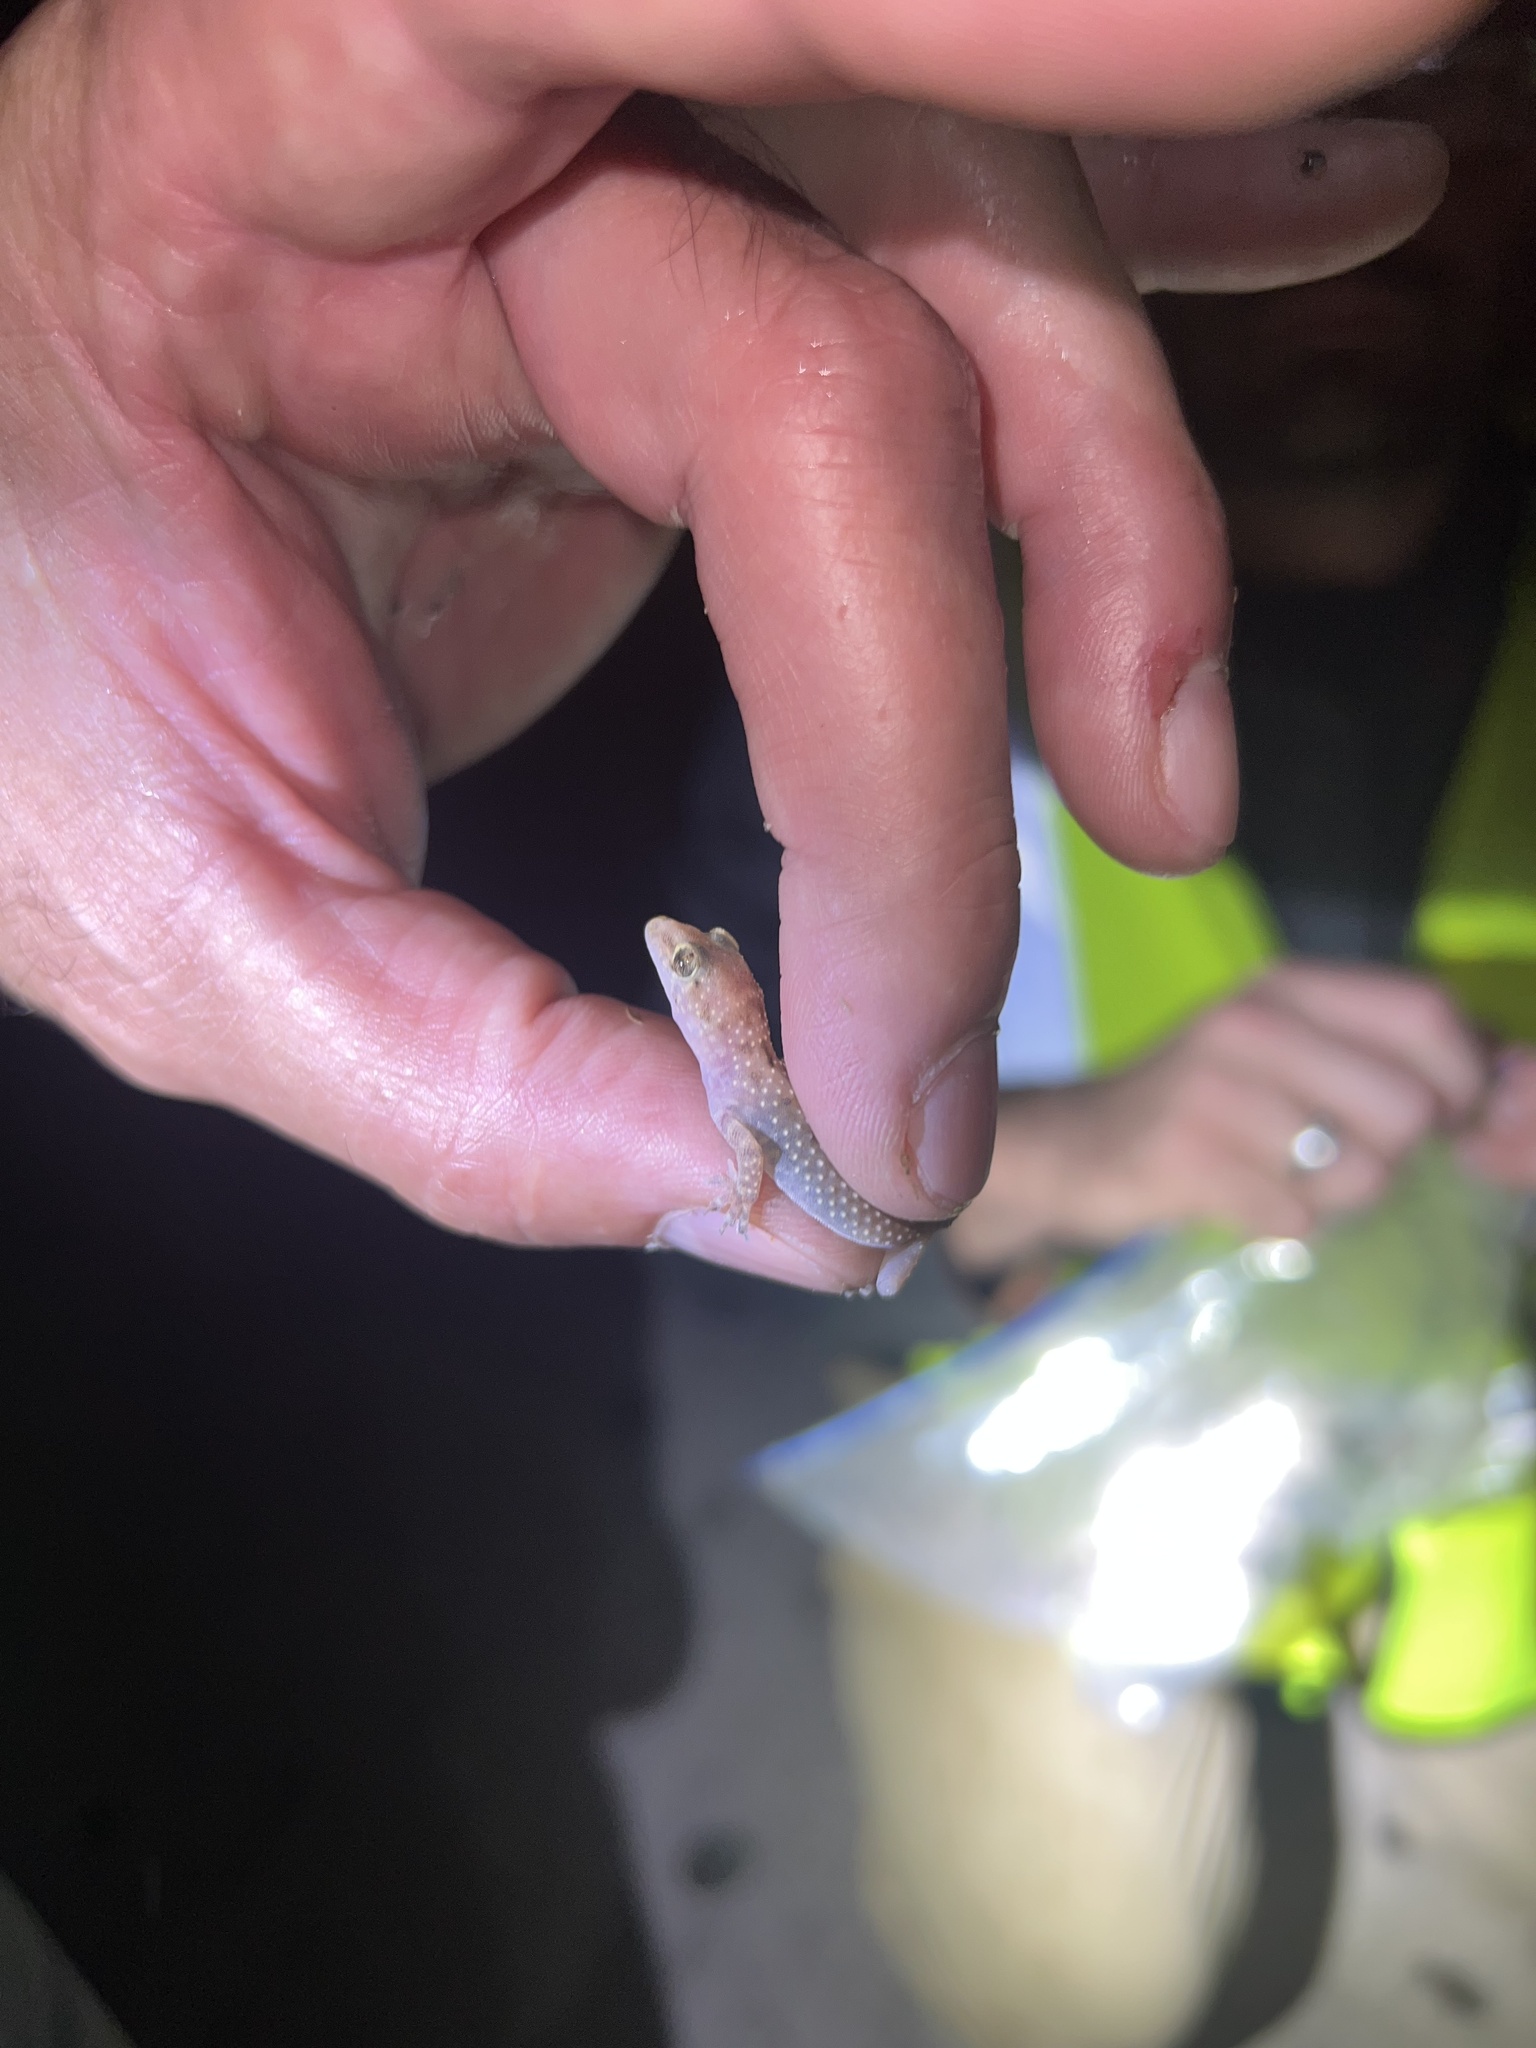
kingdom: Animalia
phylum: Chordata
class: Squamata
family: Gekkonidae
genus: Hemidactylus
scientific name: Hemidactylus turcicus
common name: Turkish gecko
